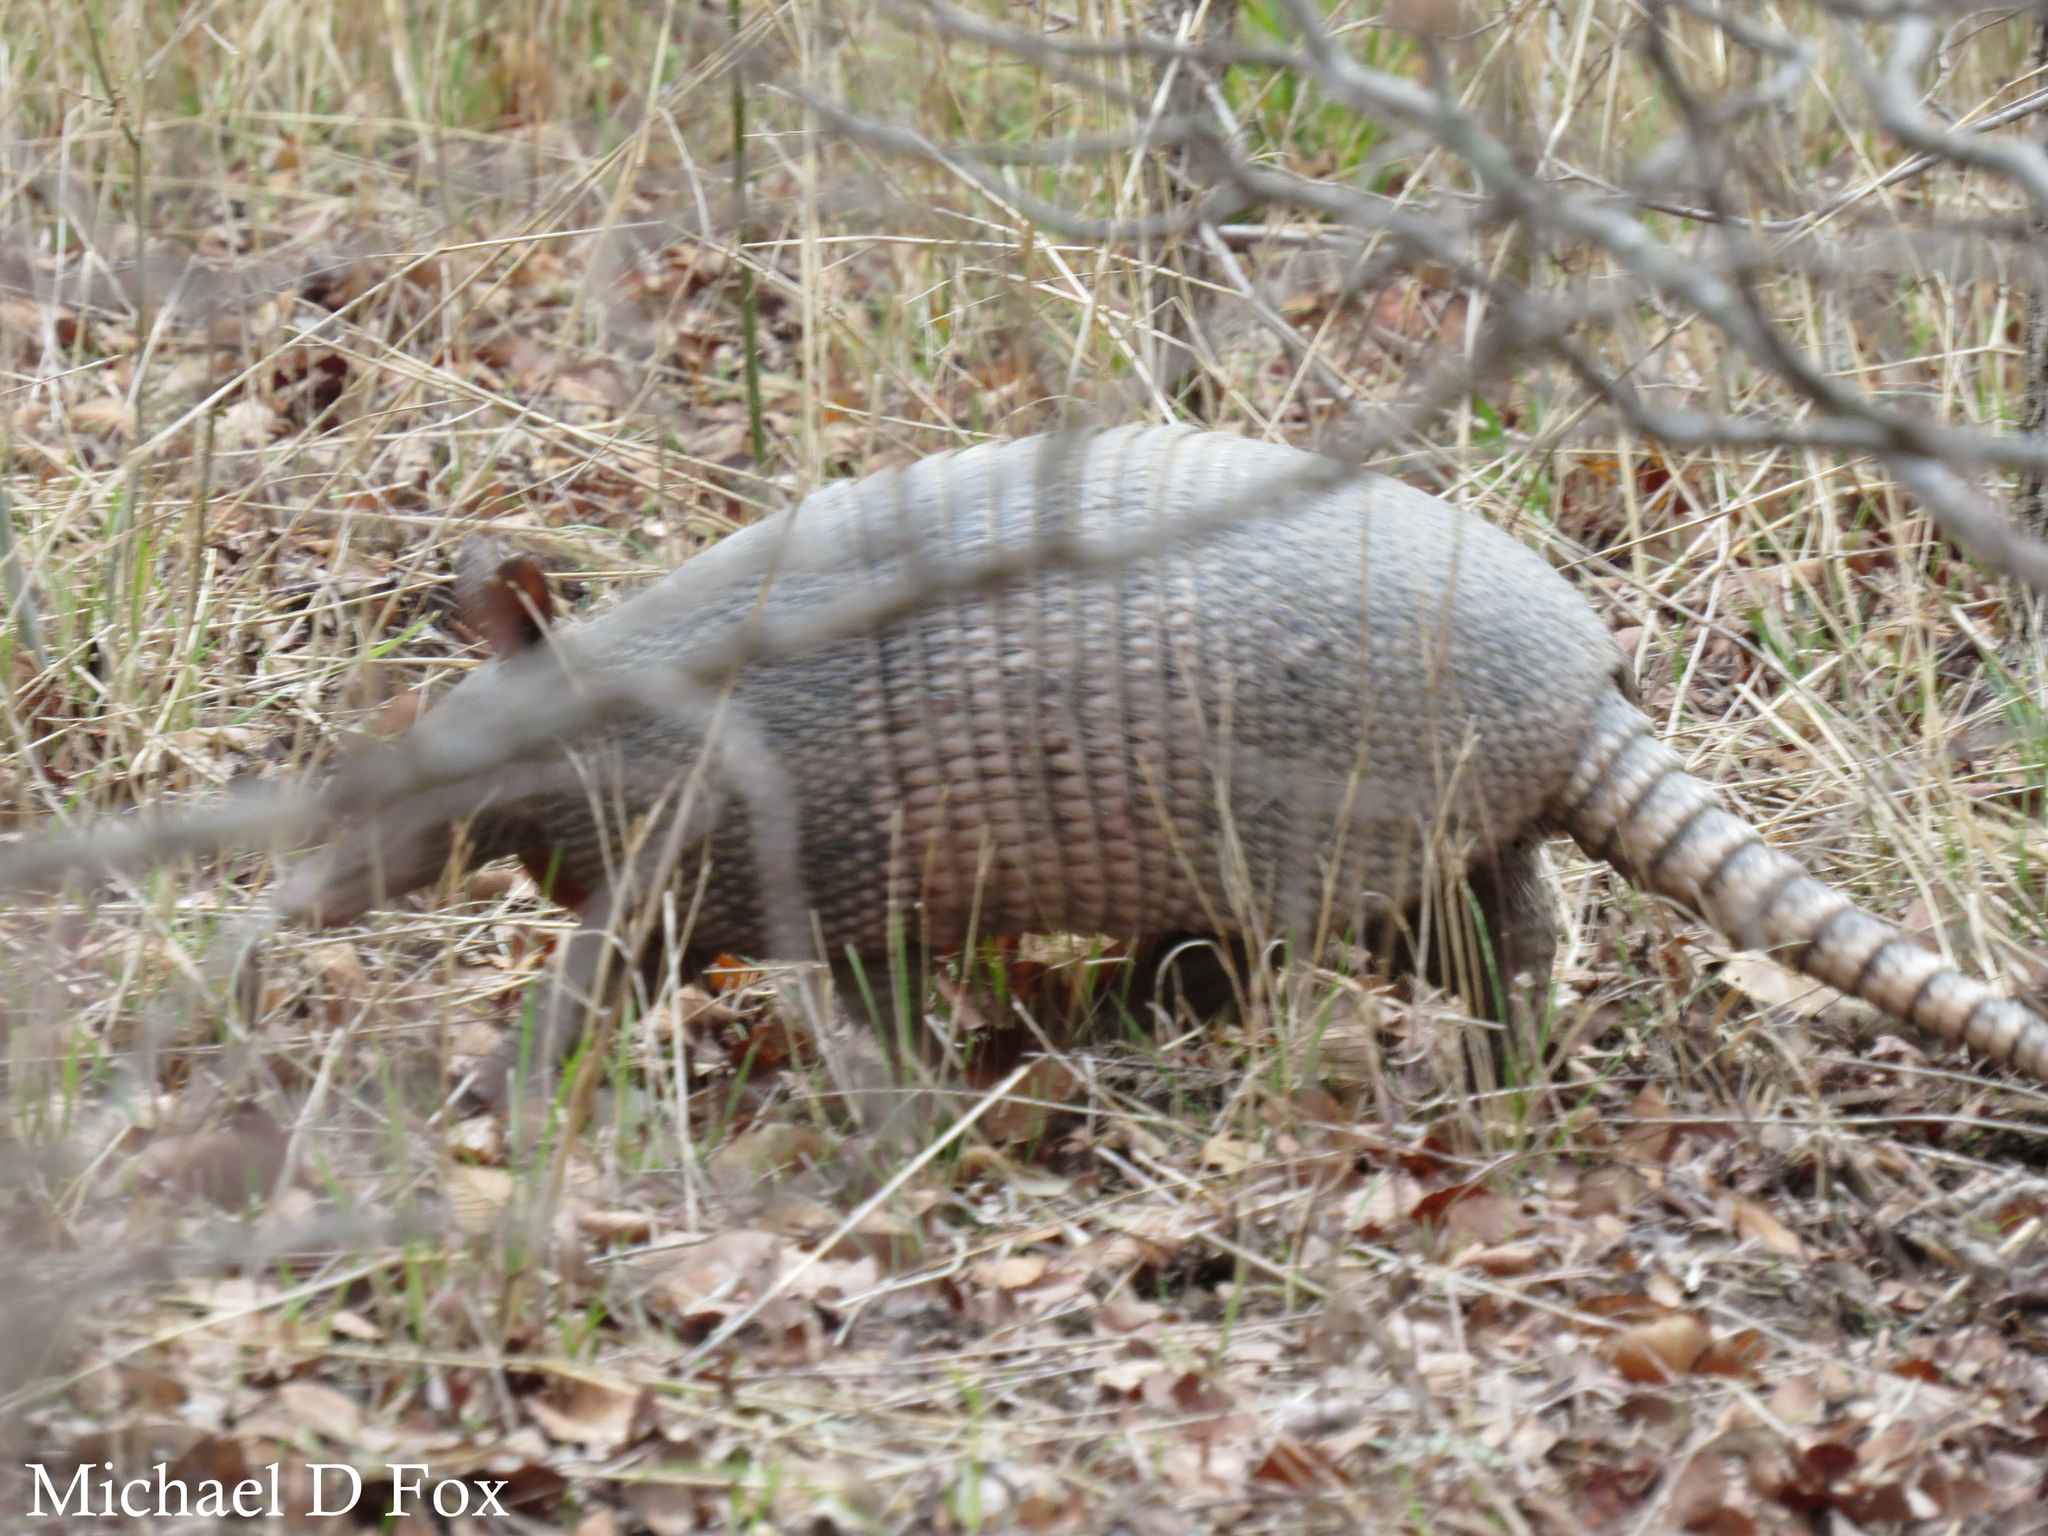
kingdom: Animalia
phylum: Chordata
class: Mammalia
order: Cingulata
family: Dasypodidae
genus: Dasypus
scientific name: Dasypus novemcinctus
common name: Nine-banded armadillo
